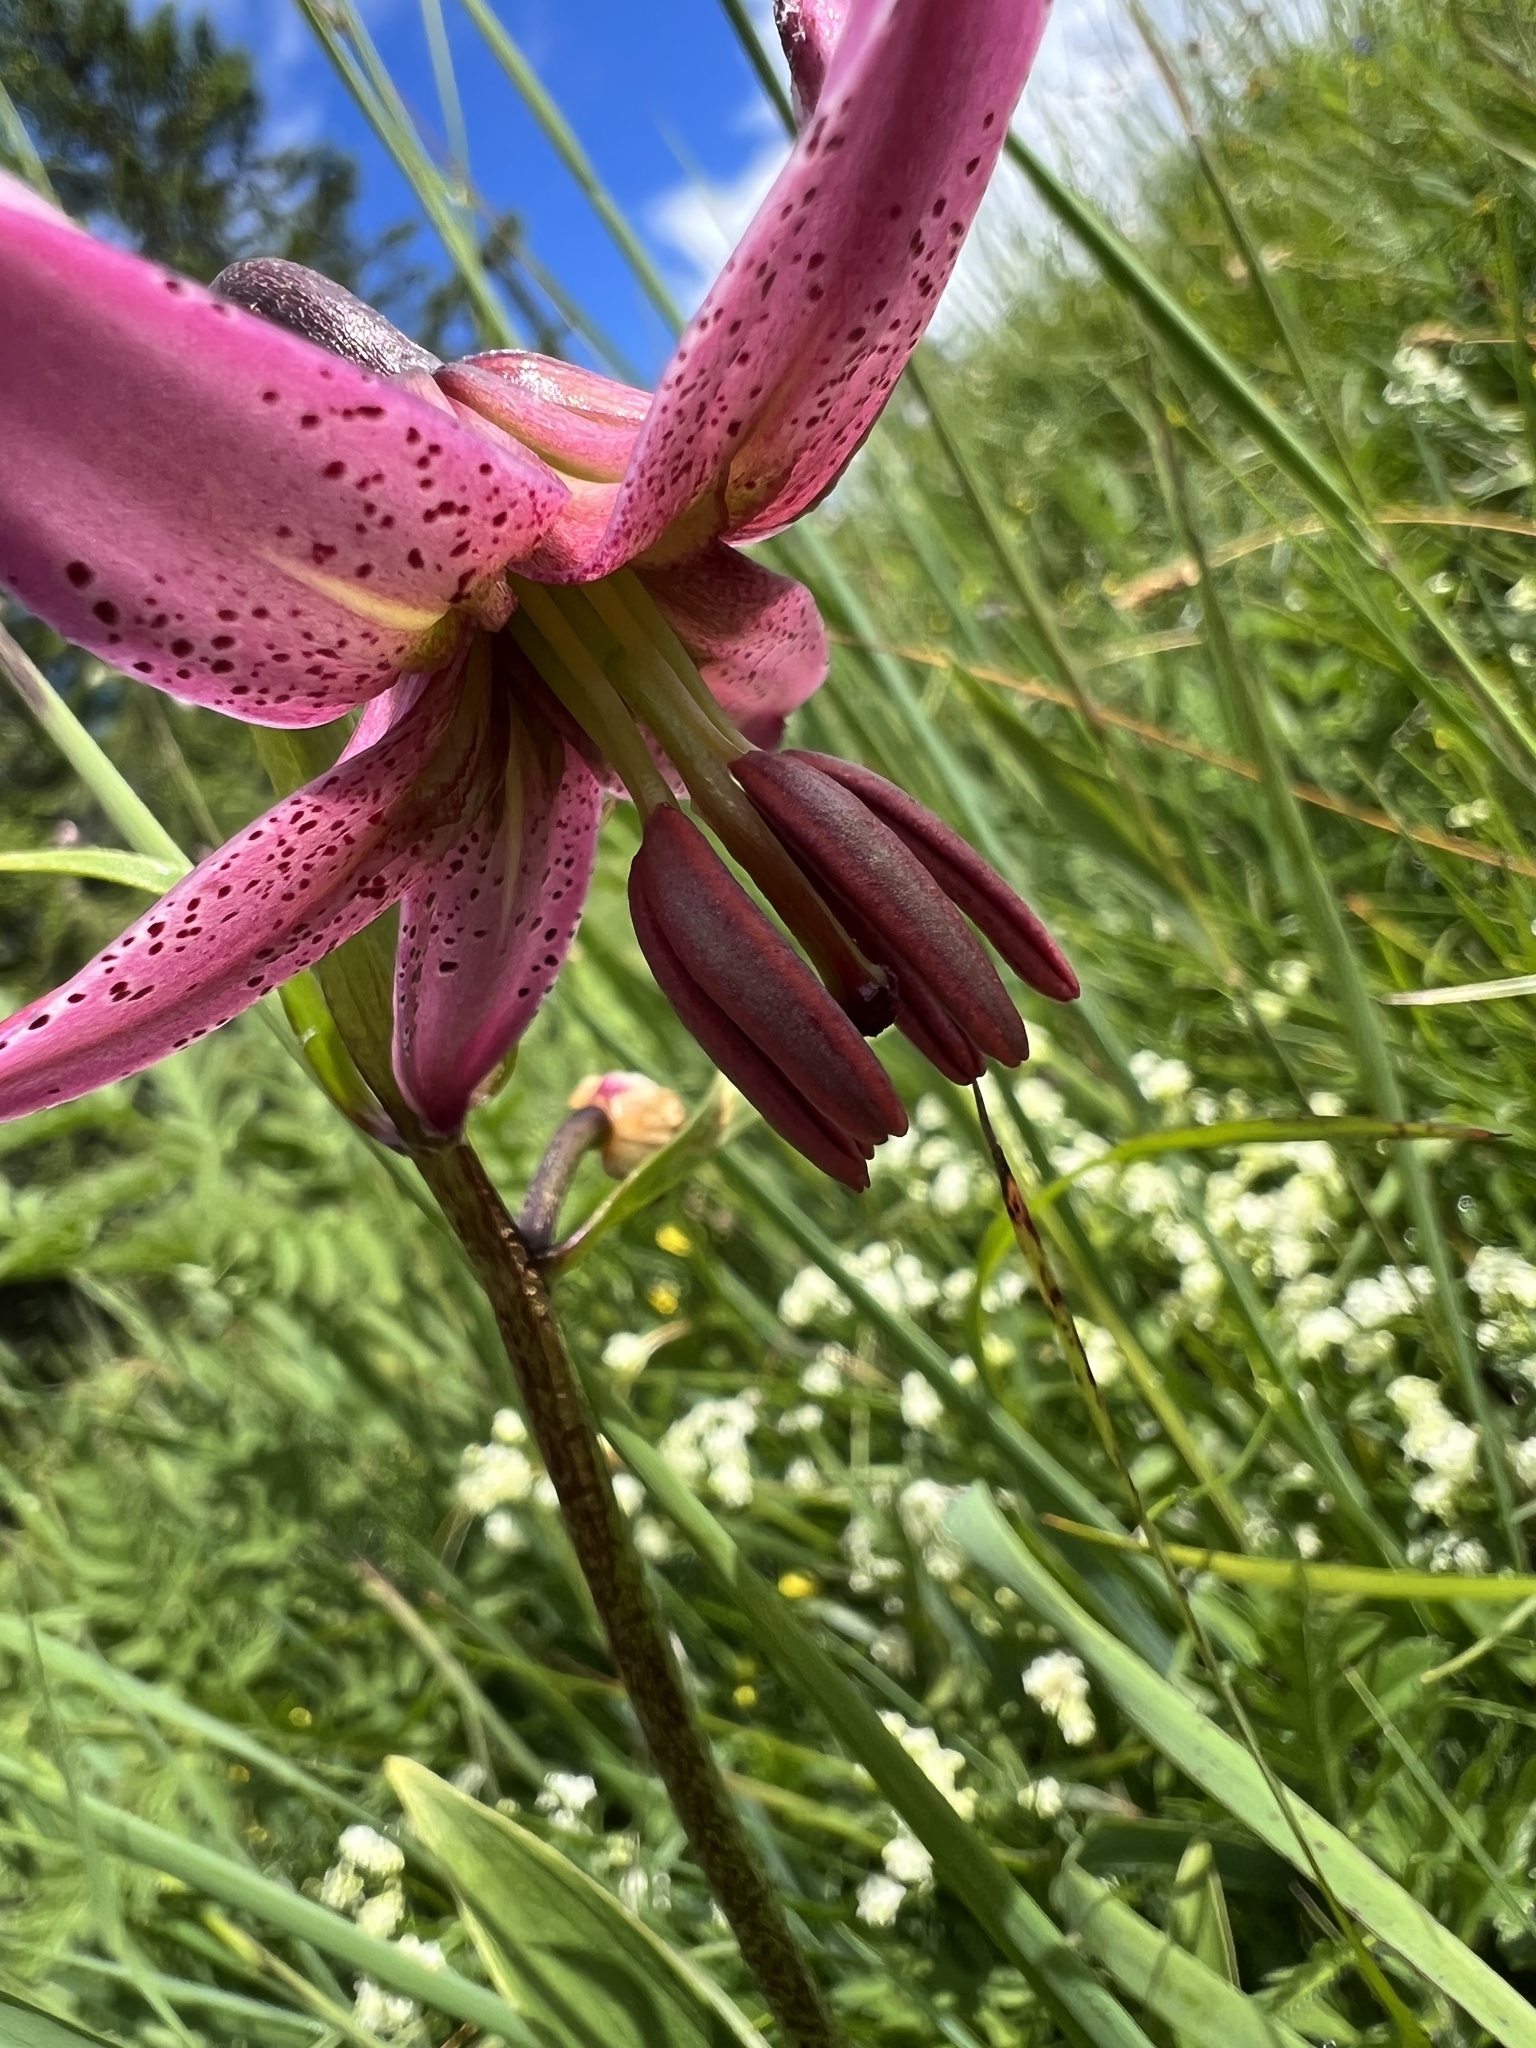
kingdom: Plantae
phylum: Tracheophyta
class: Liliopsida
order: Liliales
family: Liliaceae
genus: Lilium
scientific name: Lilium martagon
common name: Martagon lily
